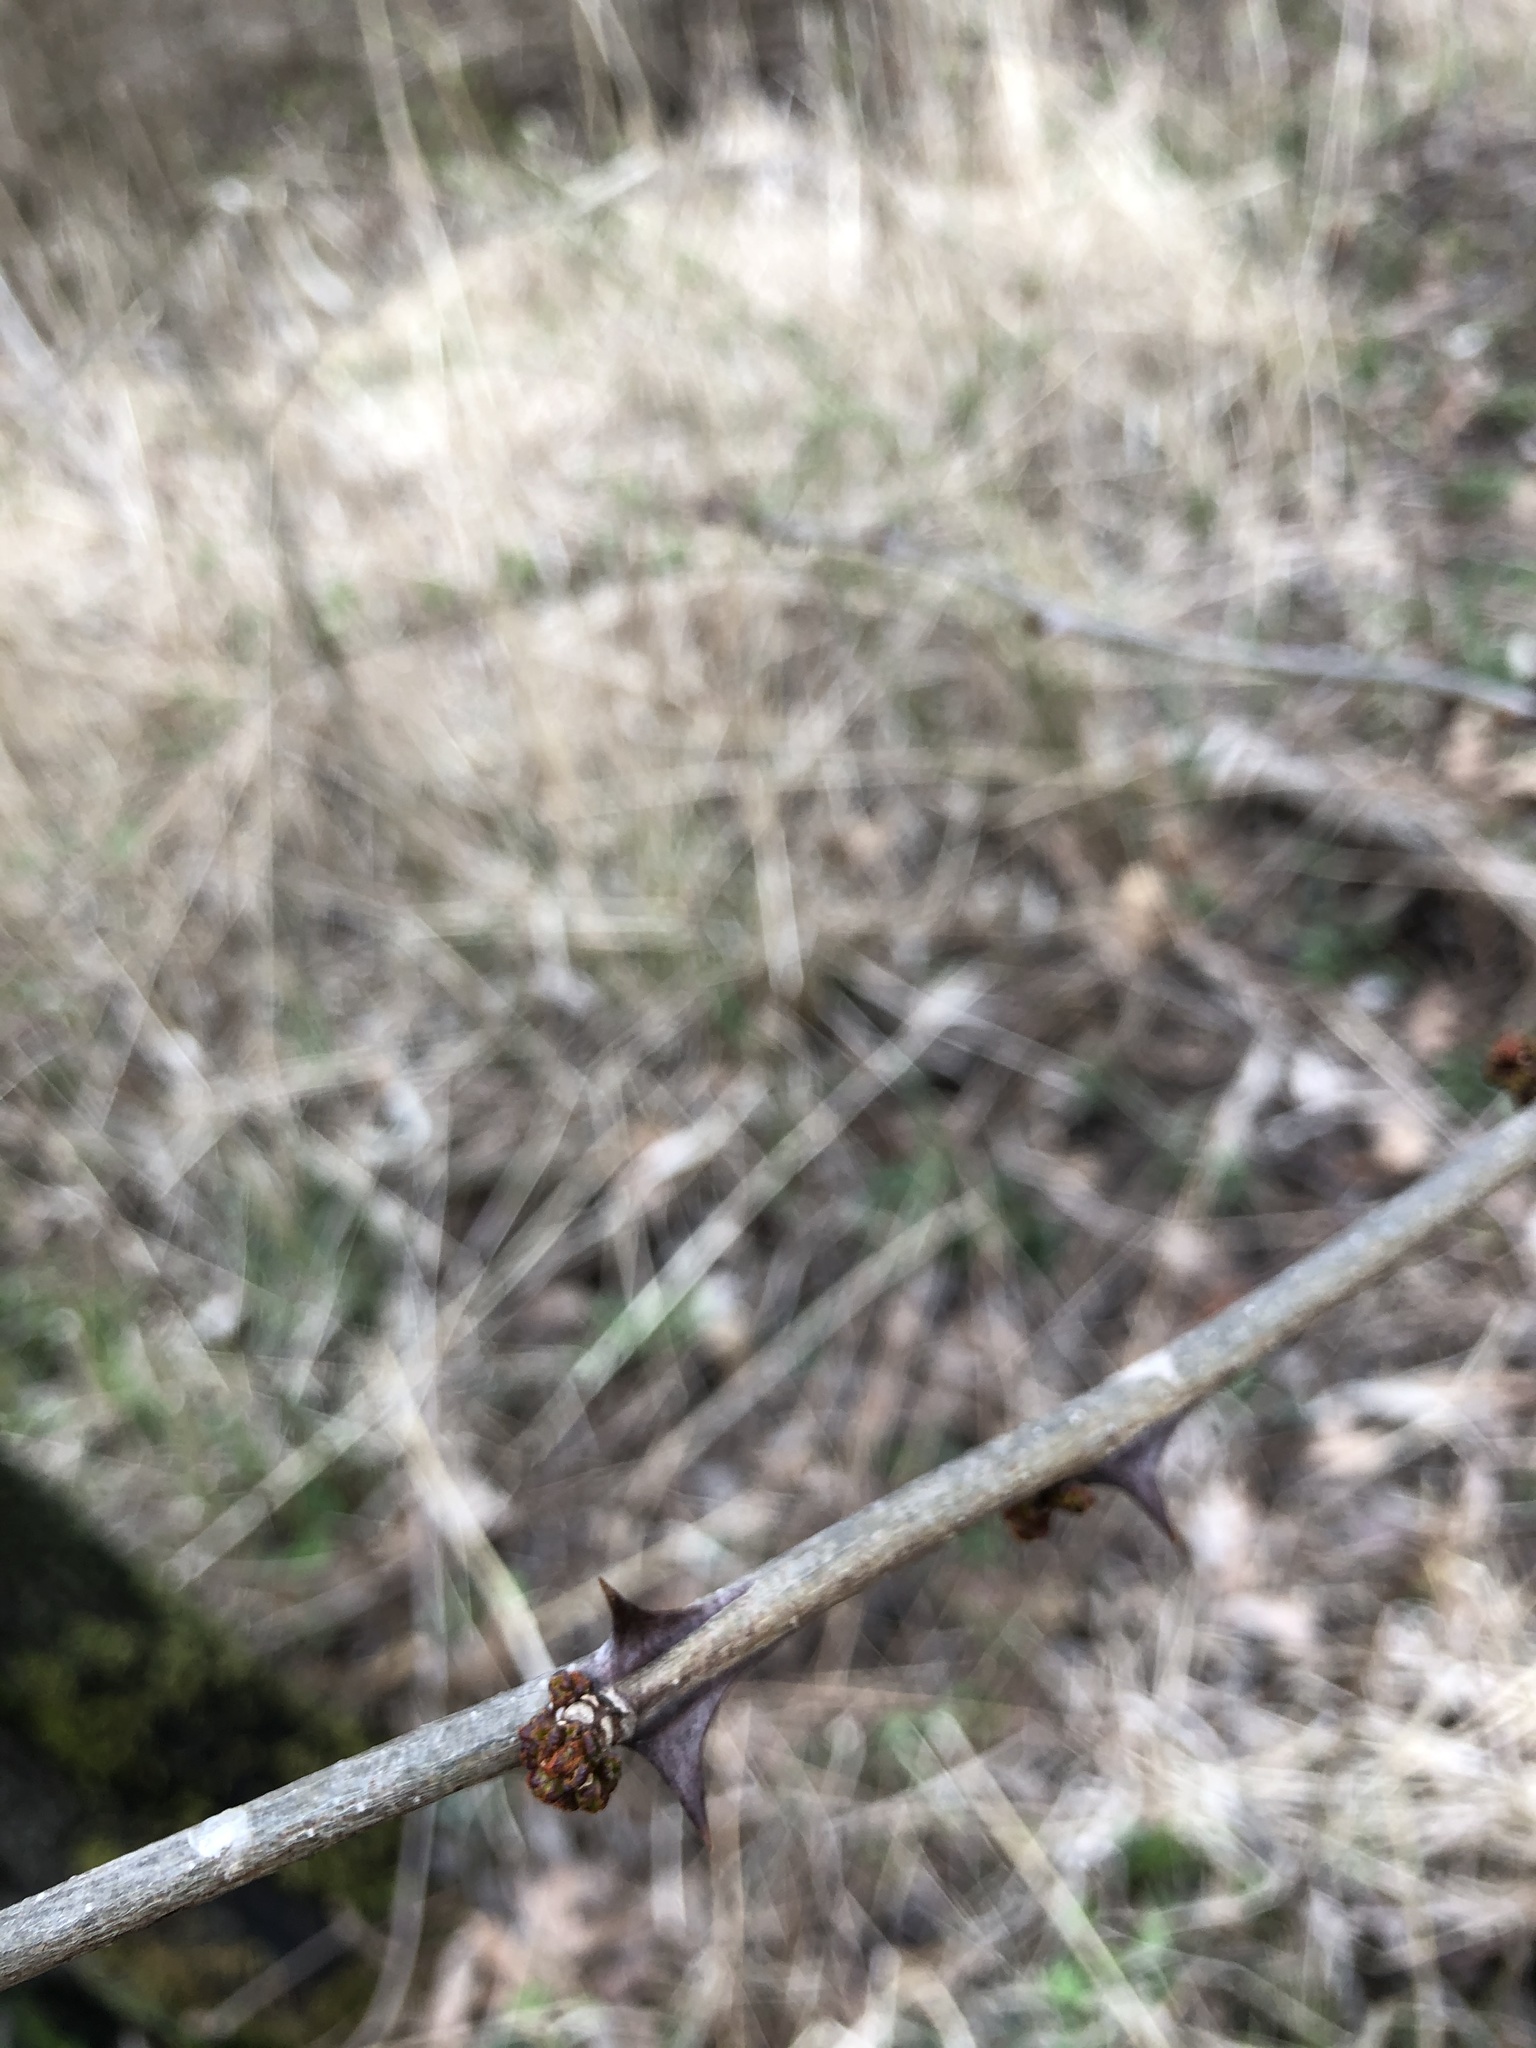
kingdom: Plantae
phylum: Tracheophyta
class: Magnoliopsida
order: Sapindales
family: Rutaceae
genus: Zanthoxylum
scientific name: Zanthoxylum americanum
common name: Northern prickly-ash
